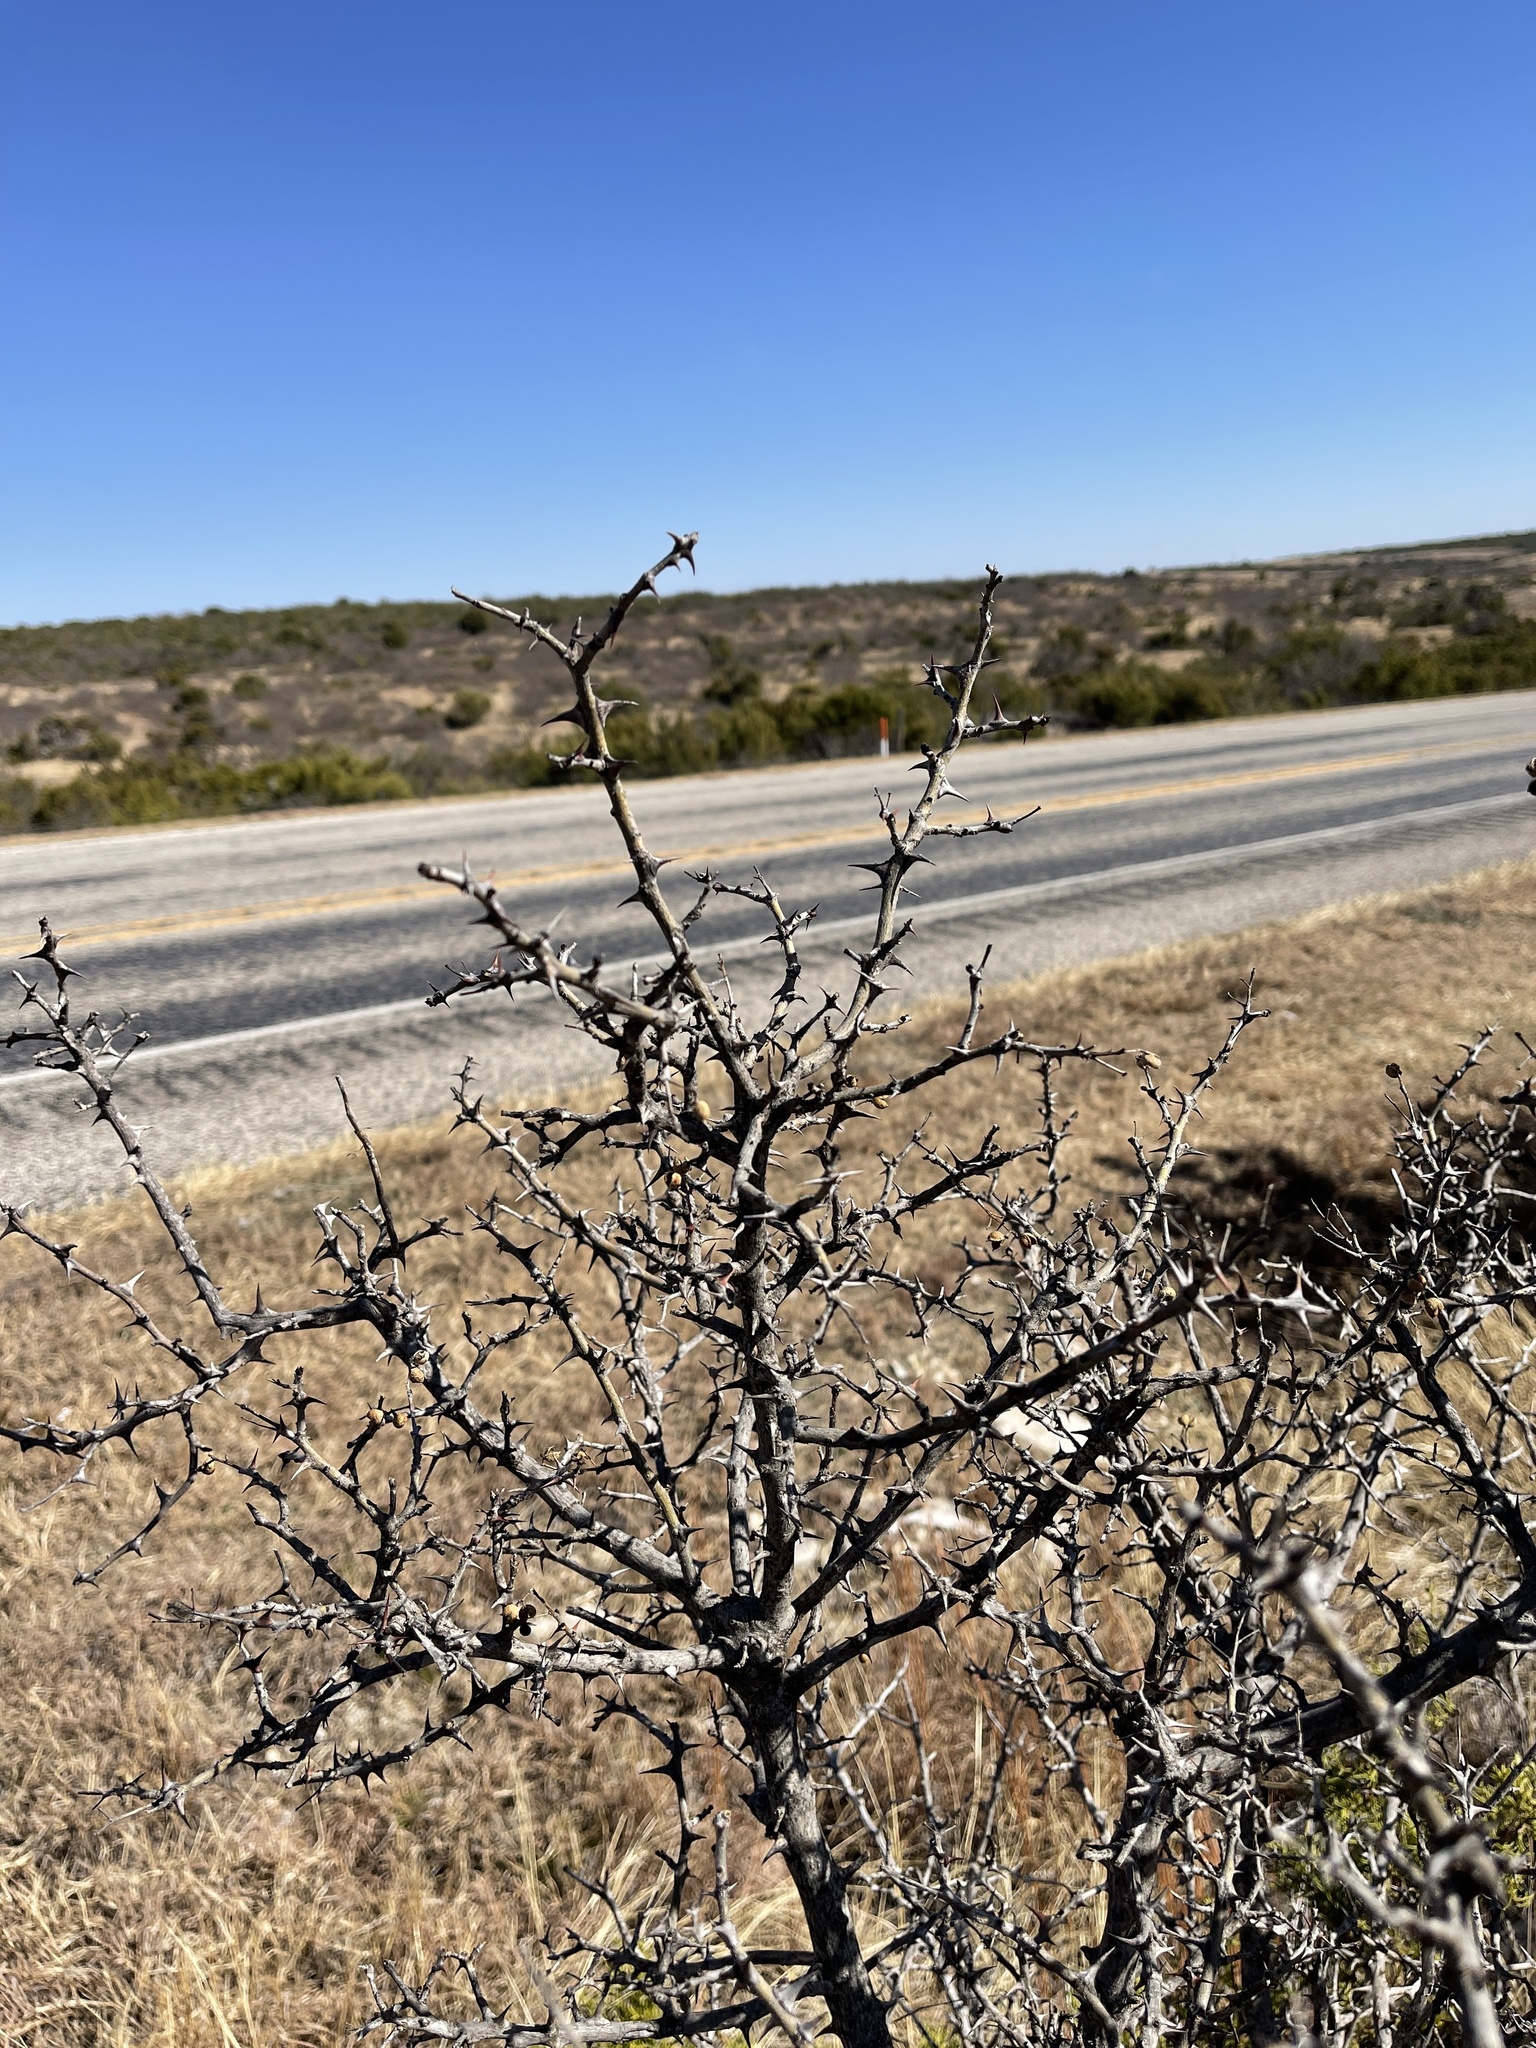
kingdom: Plantae
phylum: Tracheophyta
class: Magnoliopsida
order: Sapindales
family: Rutaceae
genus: Zanthoxylum
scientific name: Zanthoxylum clava-herculis
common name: Hercules'-club
